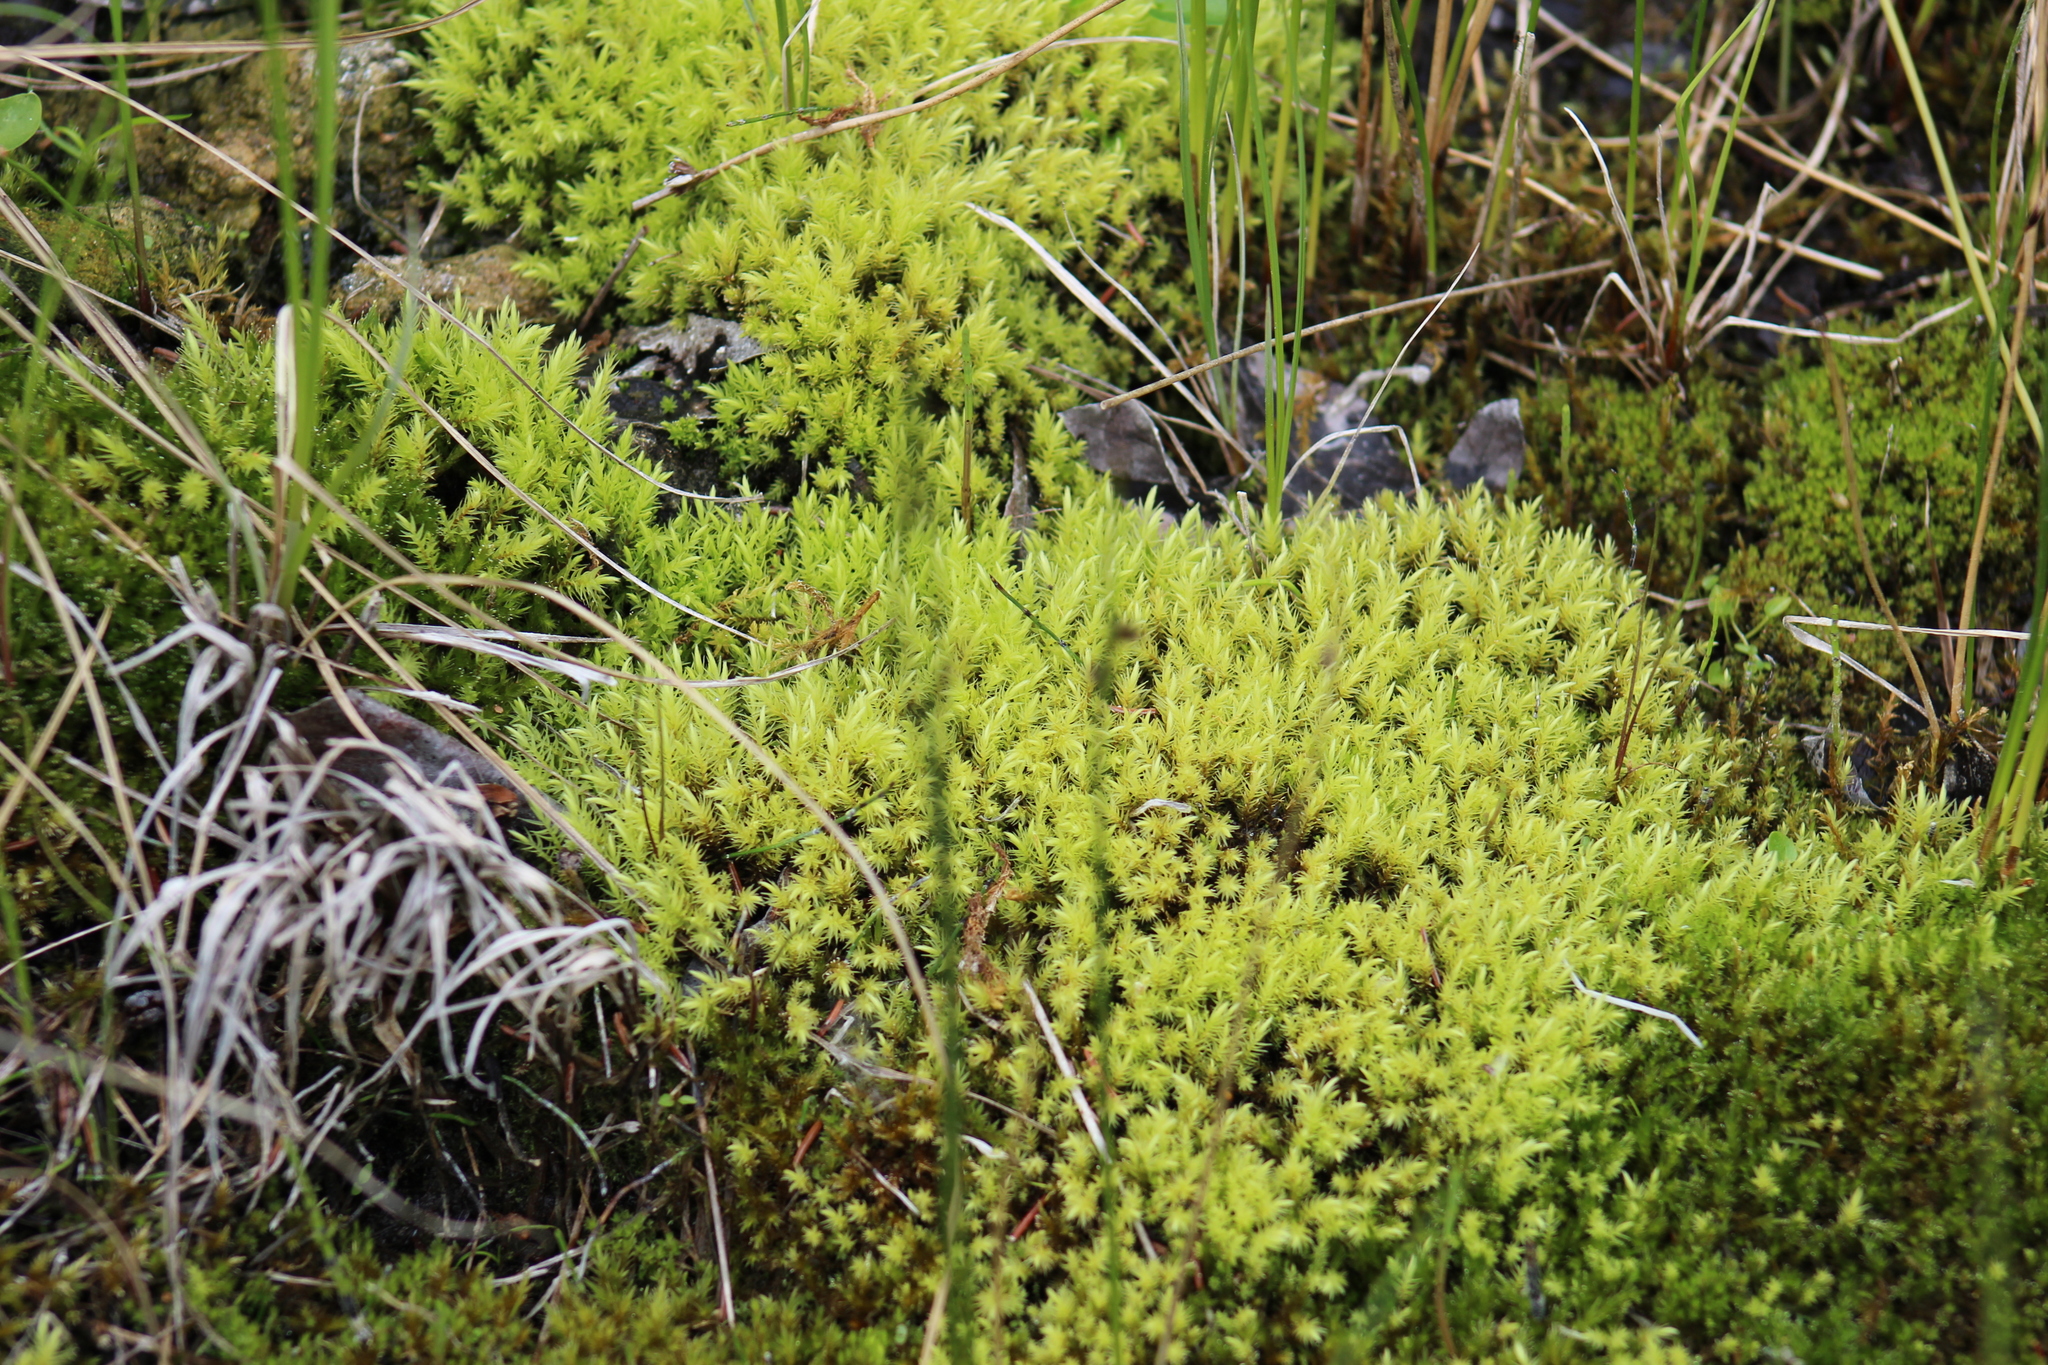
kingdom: Plantae
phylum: Bryophyta
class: Bryopsida
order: Aulacomniales
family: Aulacomniaceae
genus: Aulacomnium
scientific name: Aulacomnium palustre
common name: Bog groove-moss
